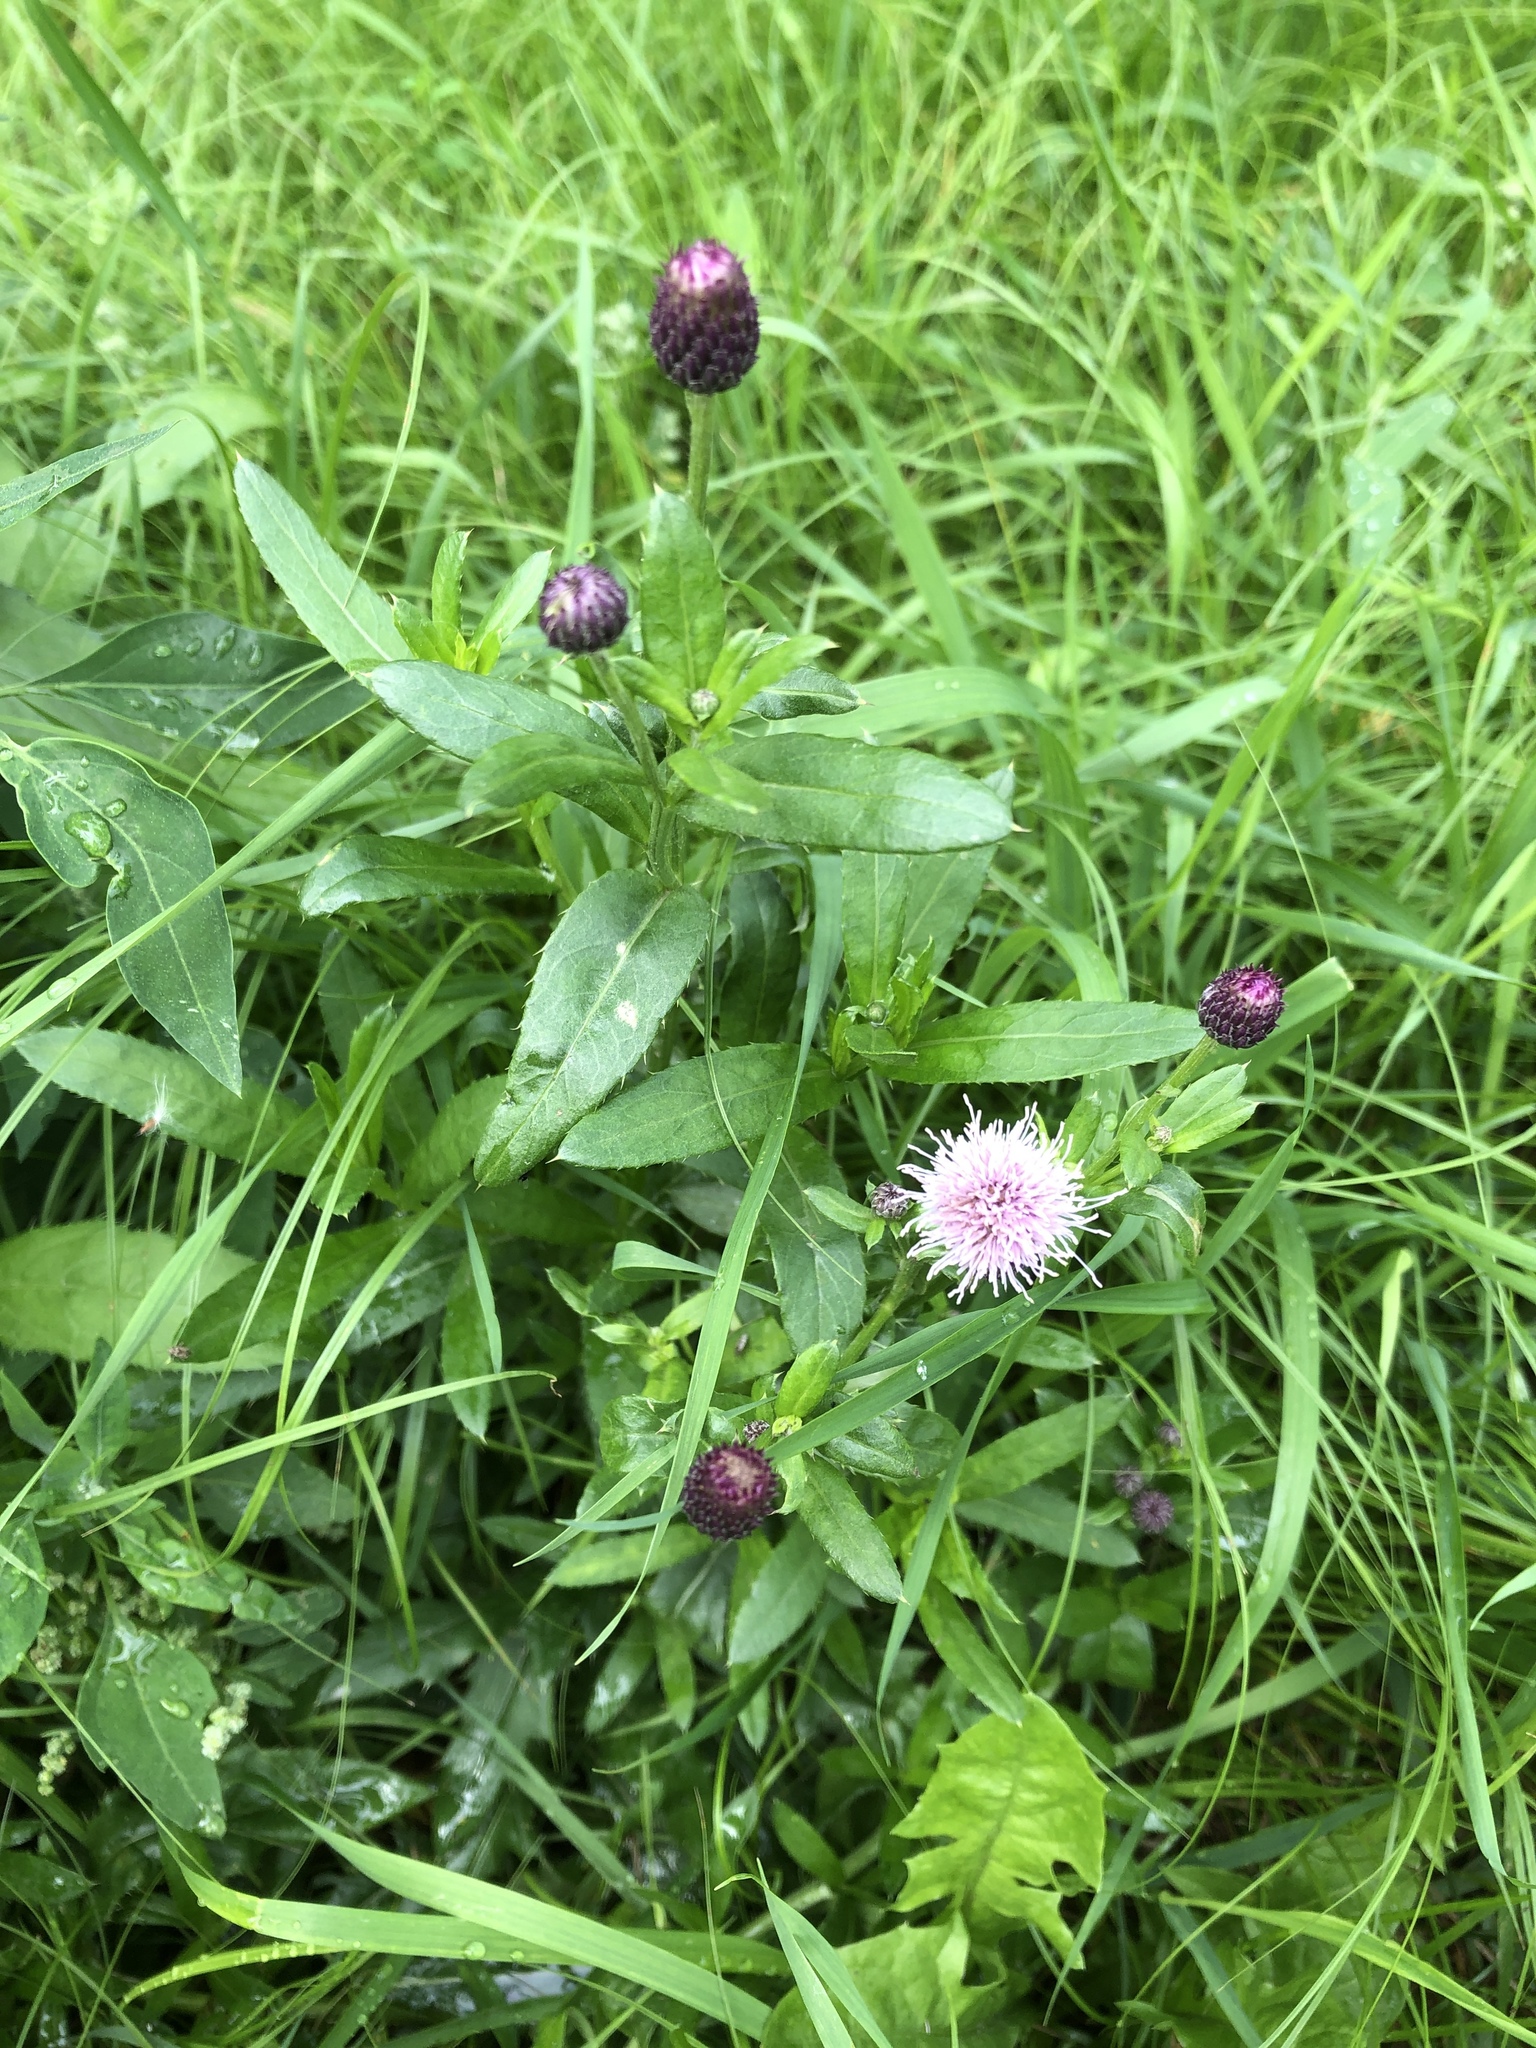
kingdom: Plantae
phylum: Tracheophyta
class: Magnoliopsida
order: Asterales
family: Asteraceae
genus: Cirsium
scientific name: Cirsium arvense
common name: Creeping thistle
